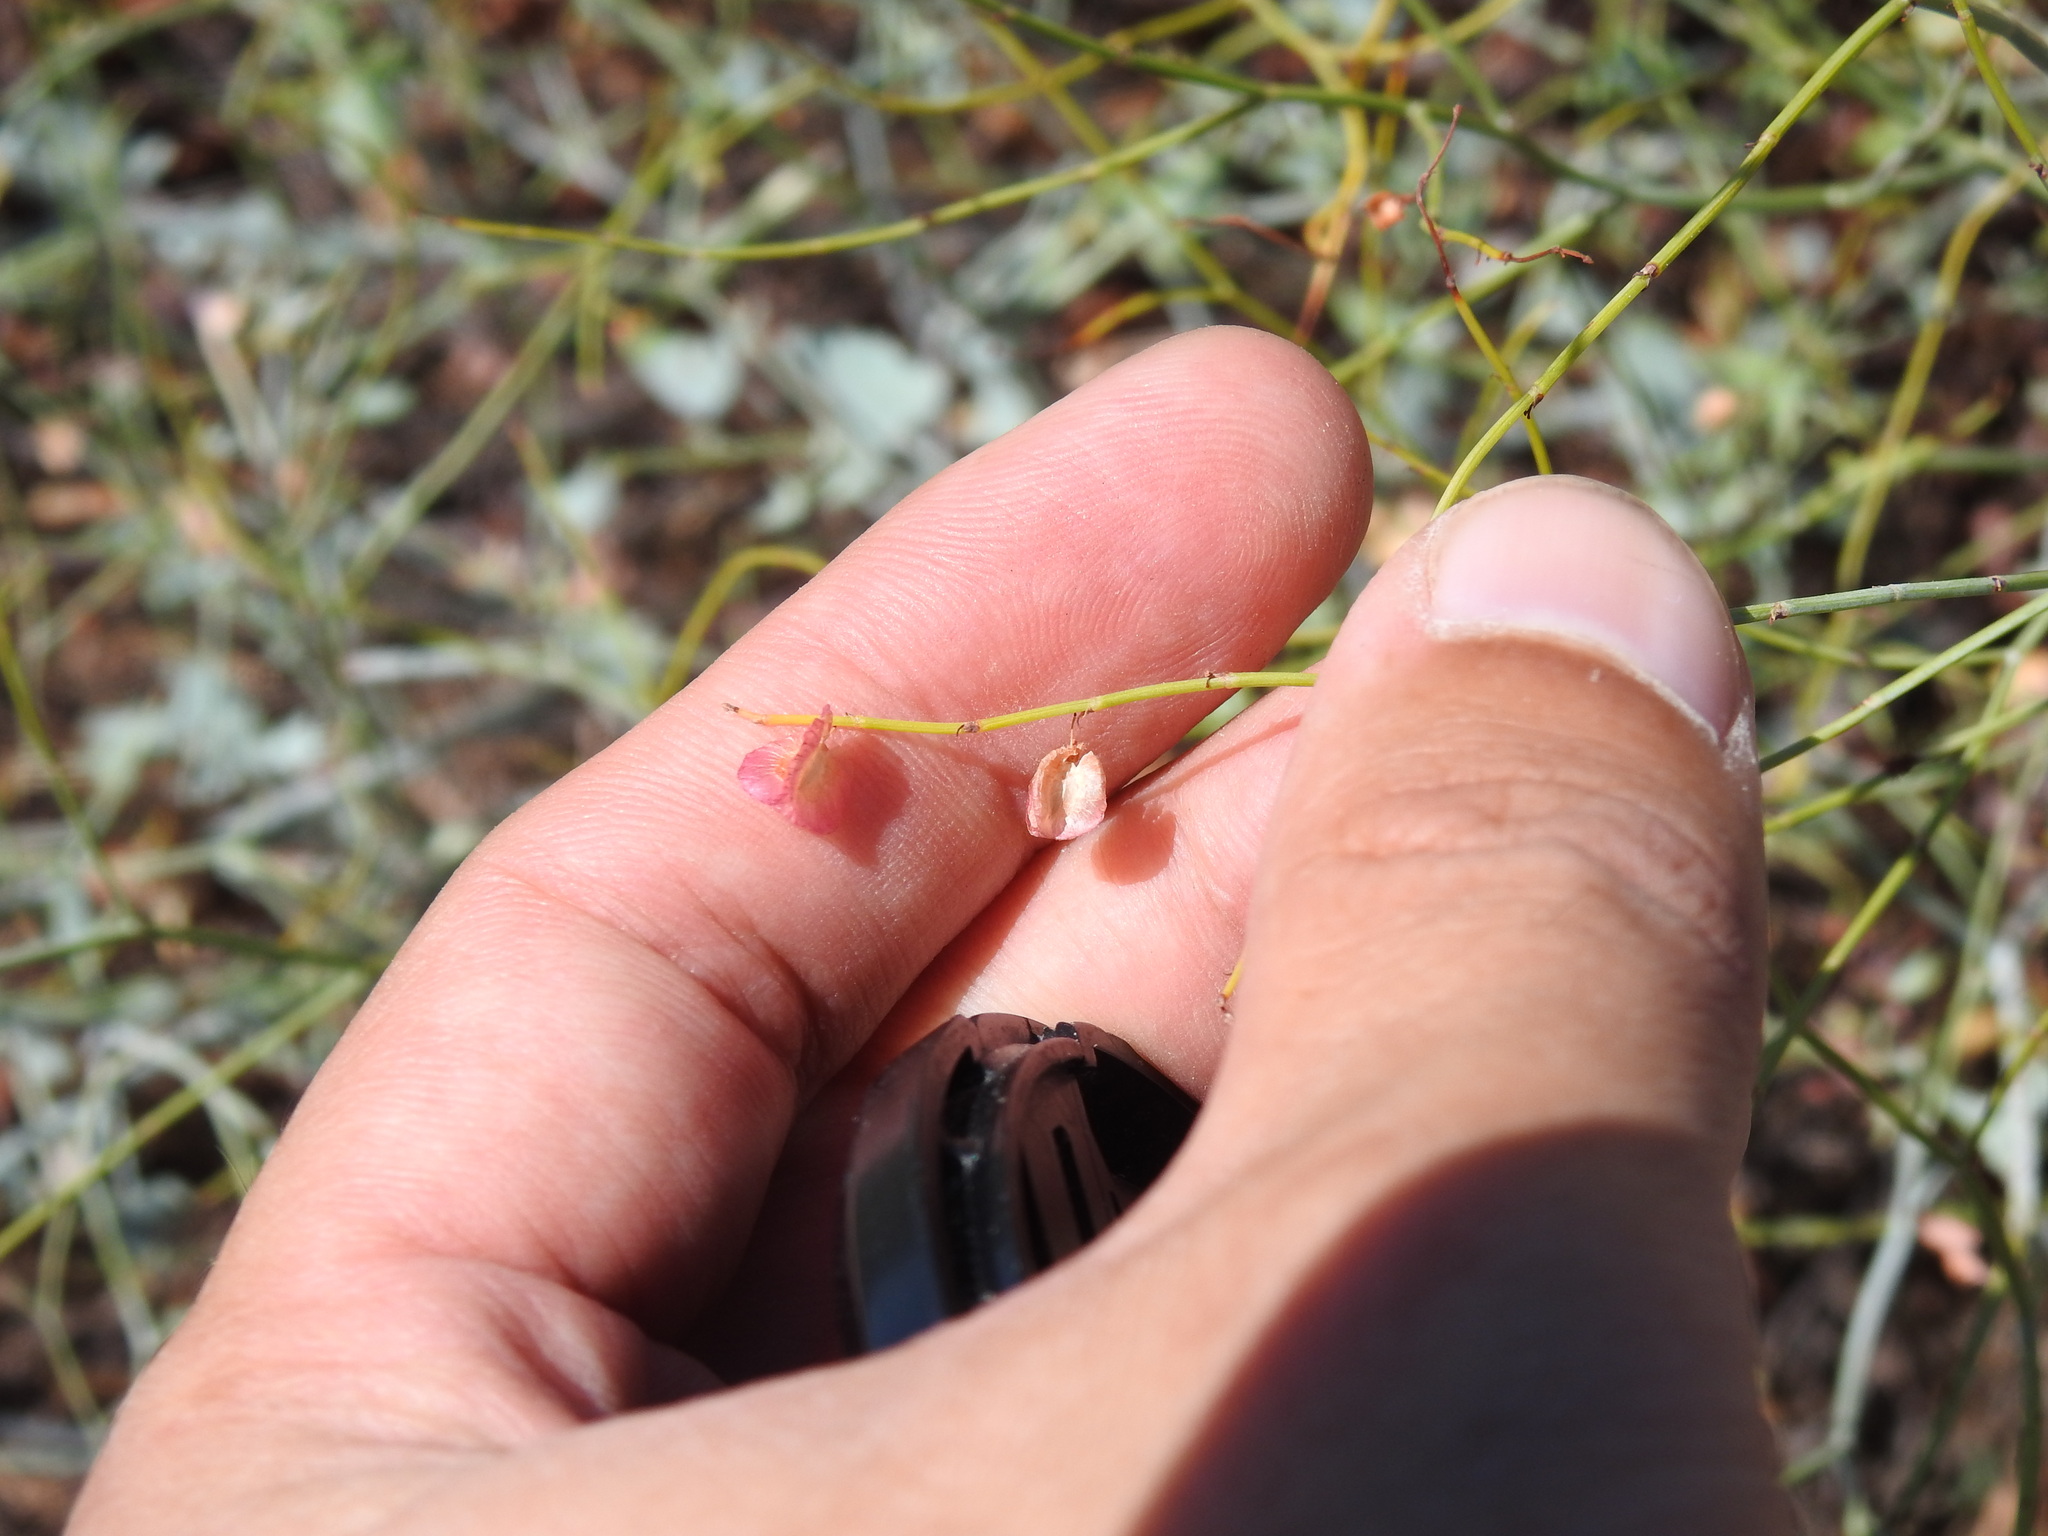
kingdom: Plantae
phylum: Tracheophyta
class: Magnoliopsida
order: Caryophyllales
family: Polygonaceae
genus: Rumex
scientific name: Rumex induratus
